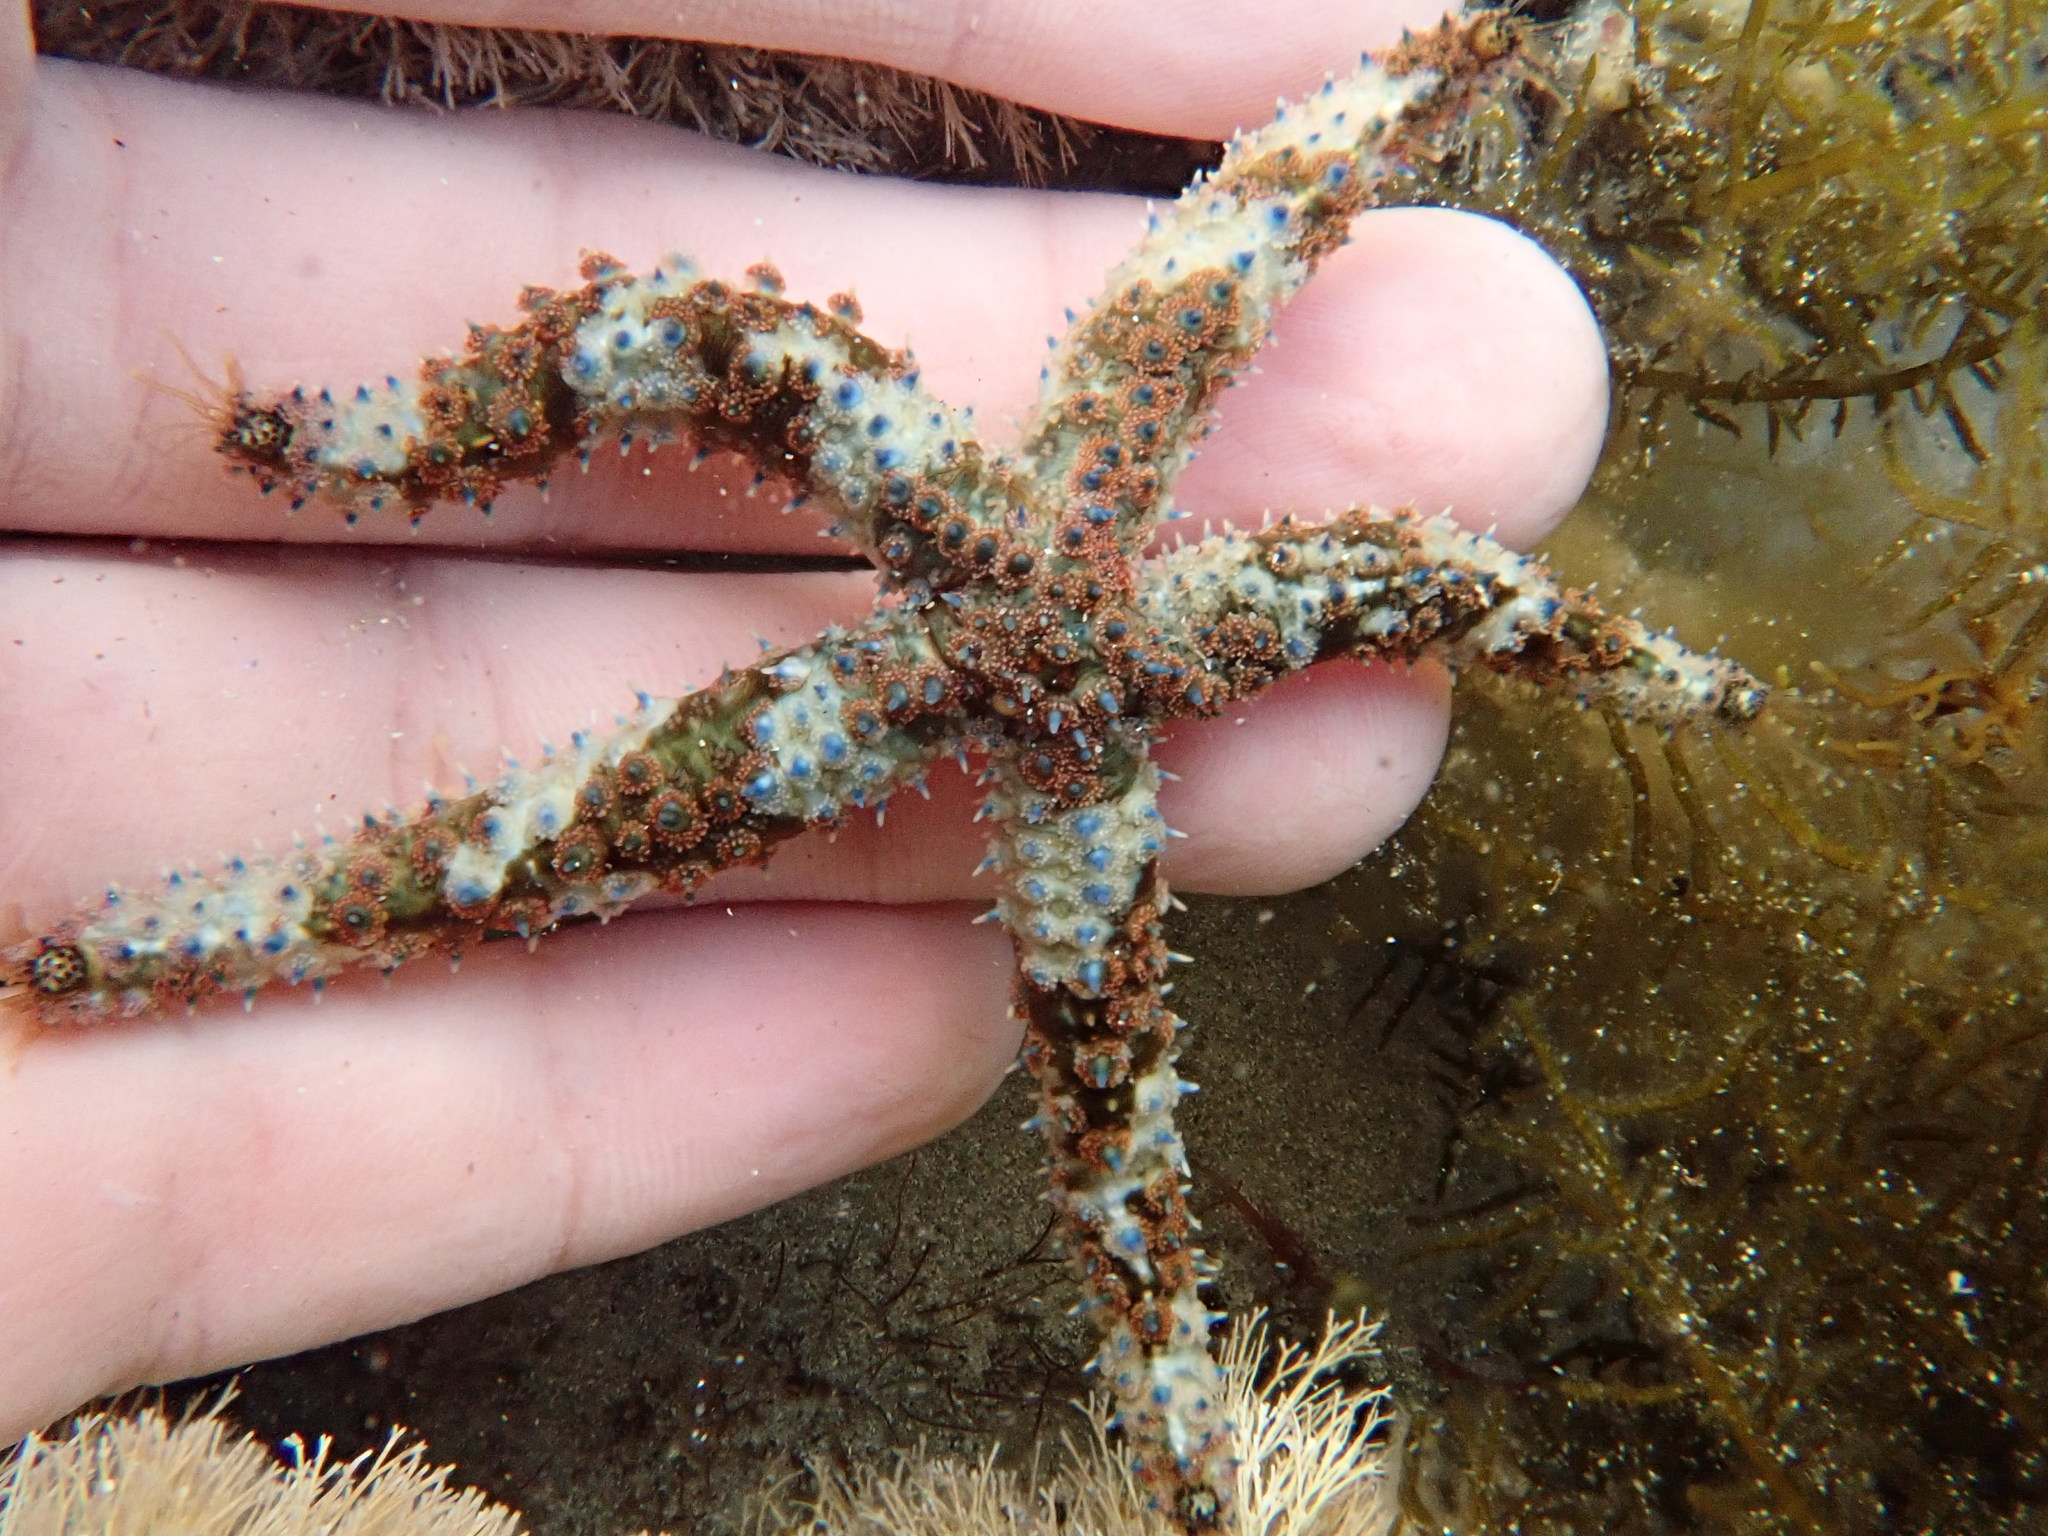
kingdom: Animalia
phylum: Echinodermata
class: Asteroidea
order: Forcipulatida
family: Asteriidae
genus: Coscinasterias
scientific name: Coscinasterias muricata
